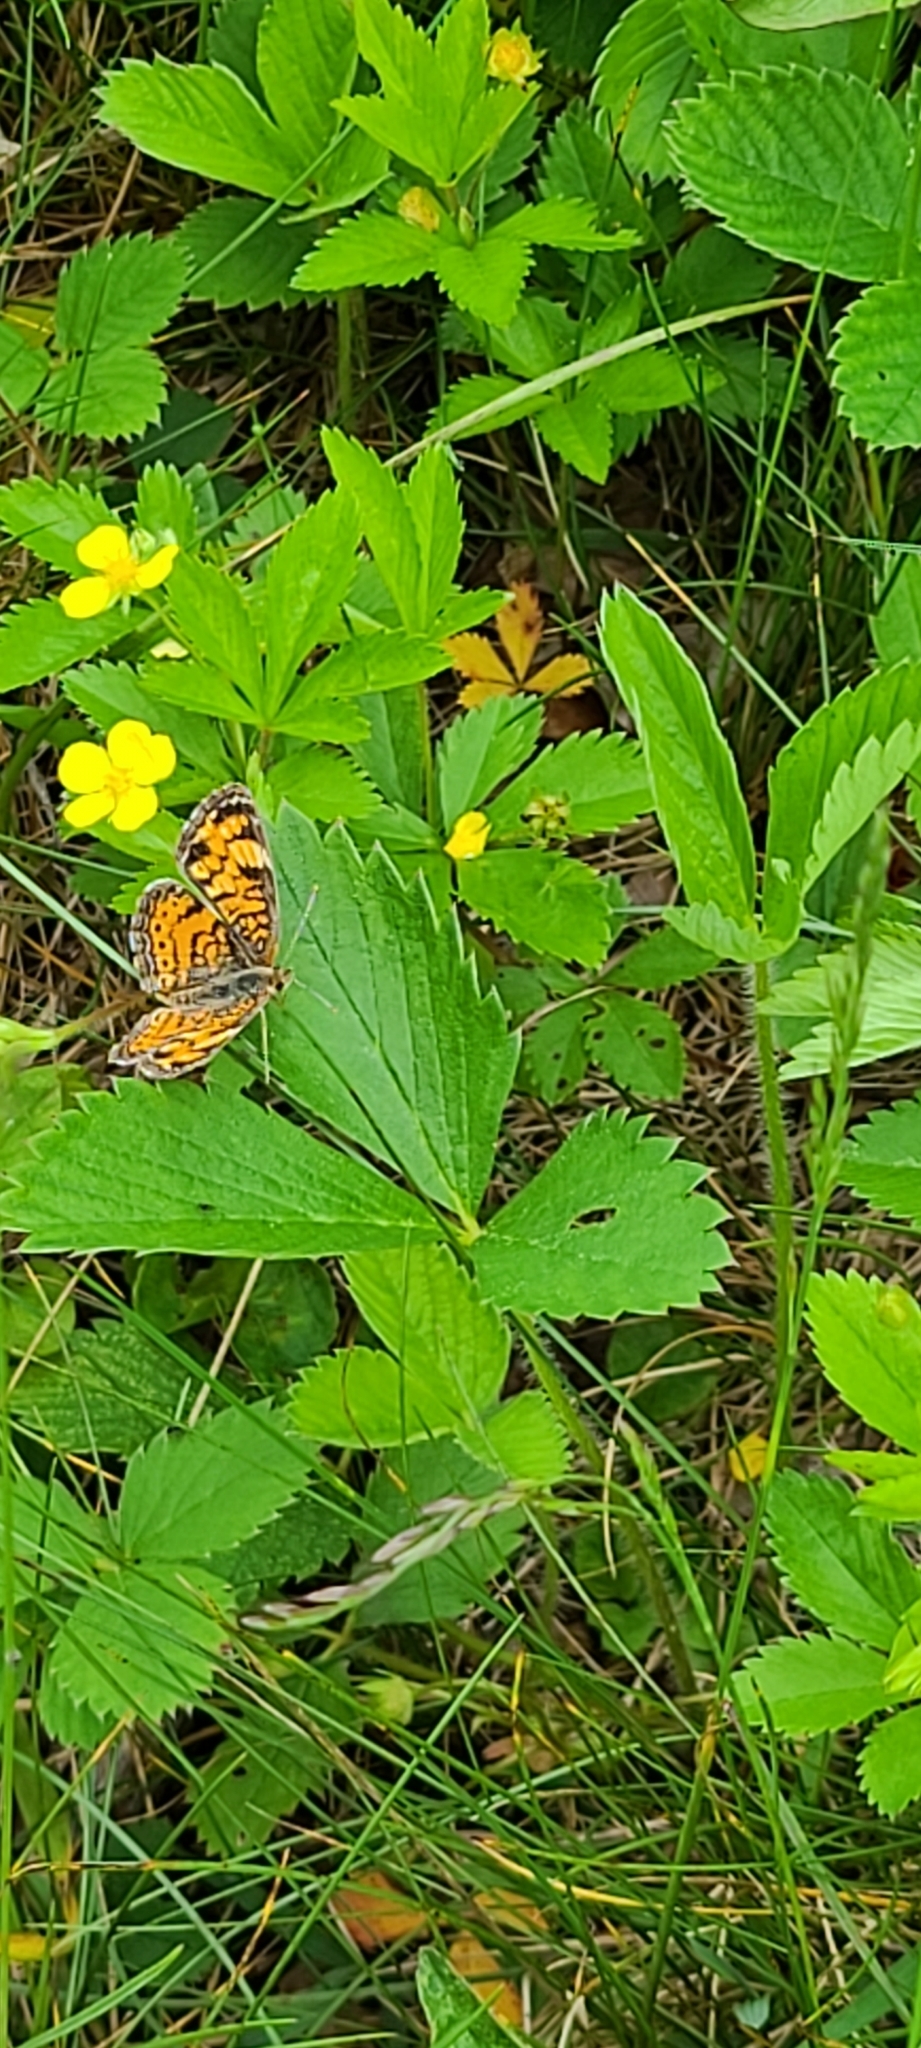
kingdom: Animalia
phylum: Arthropoda
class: Insecta
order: Lepidoptera
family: Nymphalidae
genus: Phyciodes
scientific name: Phyciodes tharos
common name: Pearl crescent
